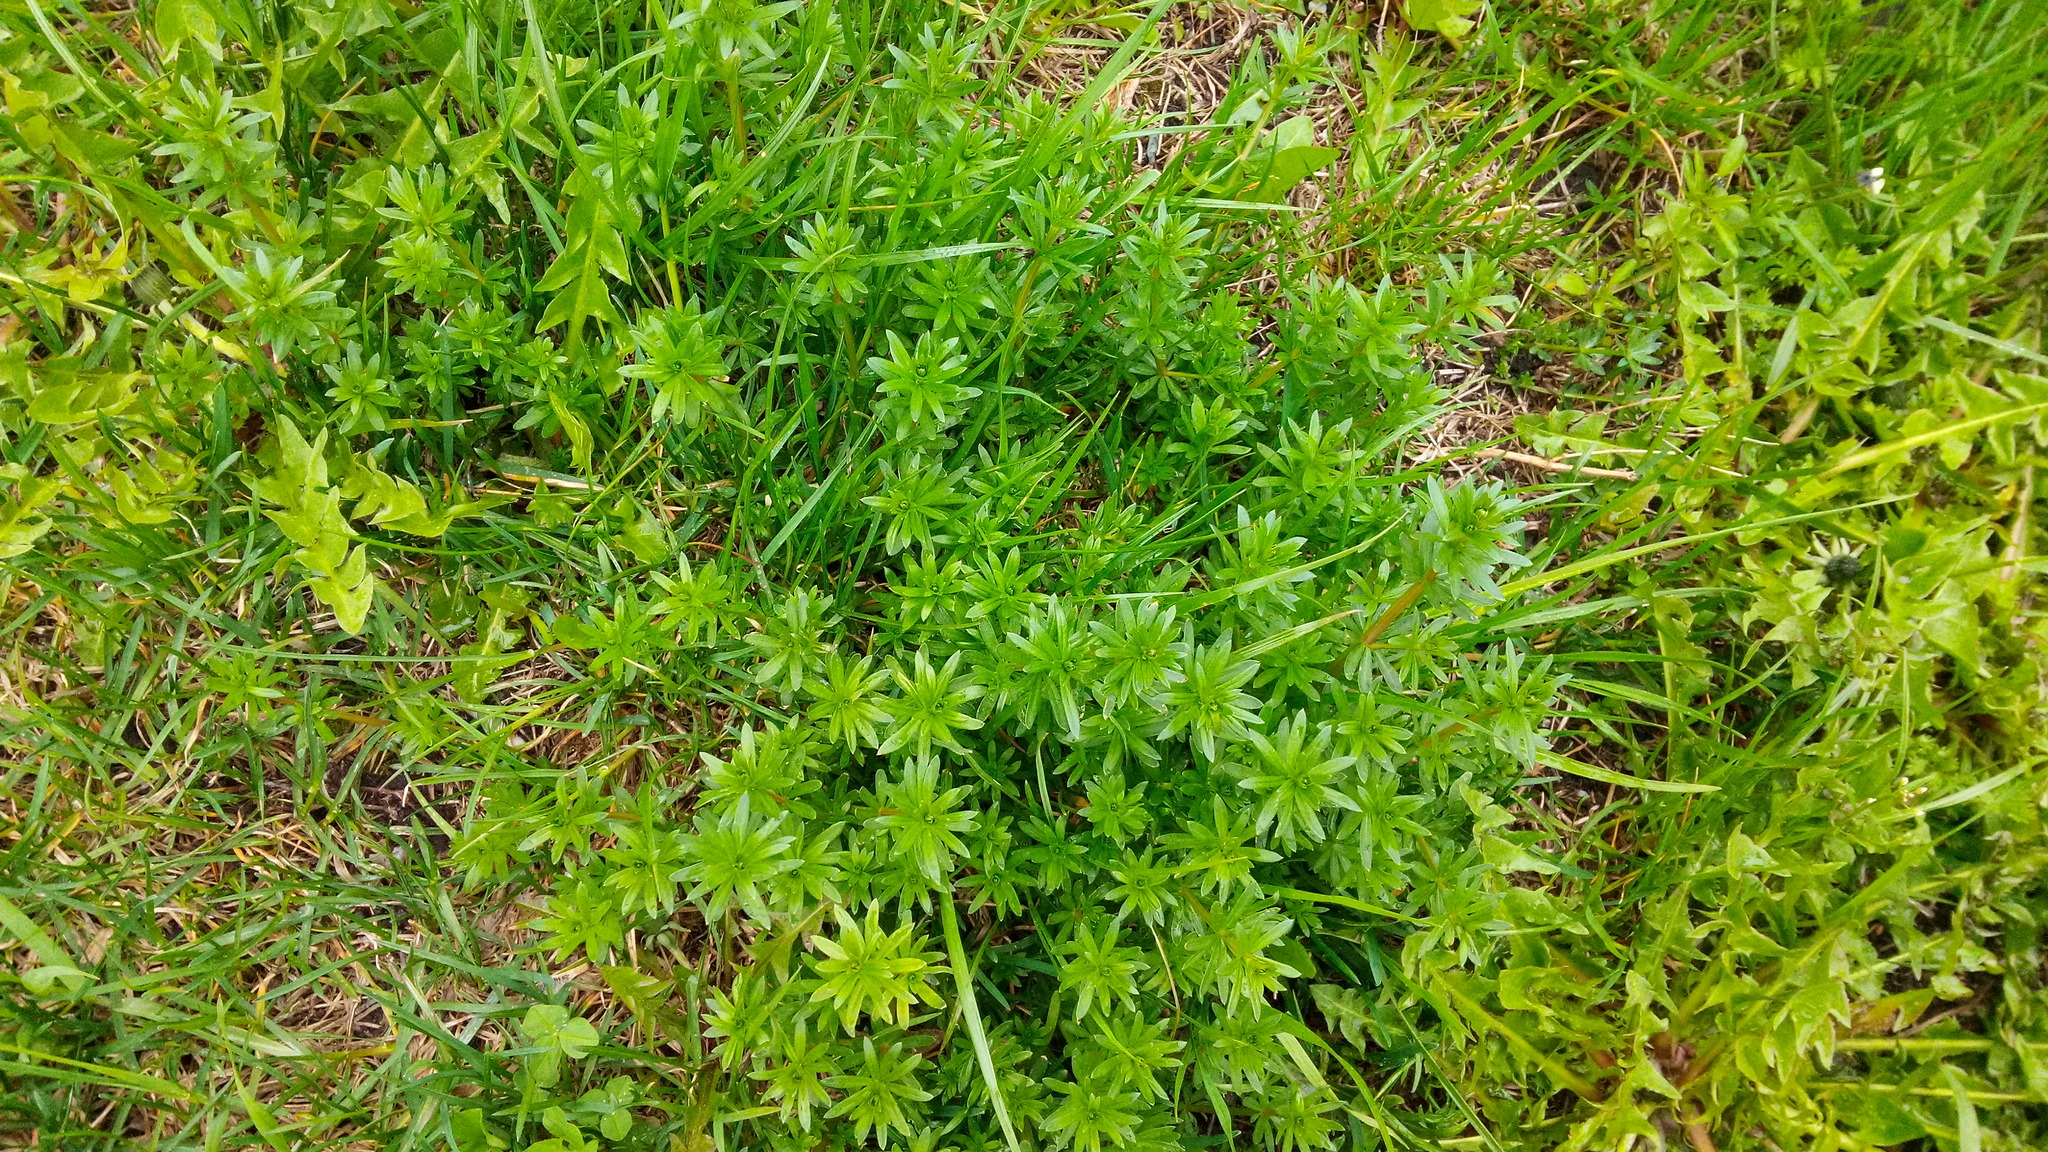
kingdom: Plantae
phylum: Tracheophyta
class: Magnoliopsida
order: Gentianales
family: Rubiaceae
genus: Galium
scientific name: Galium mollugo
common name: Hedge bedstraw
